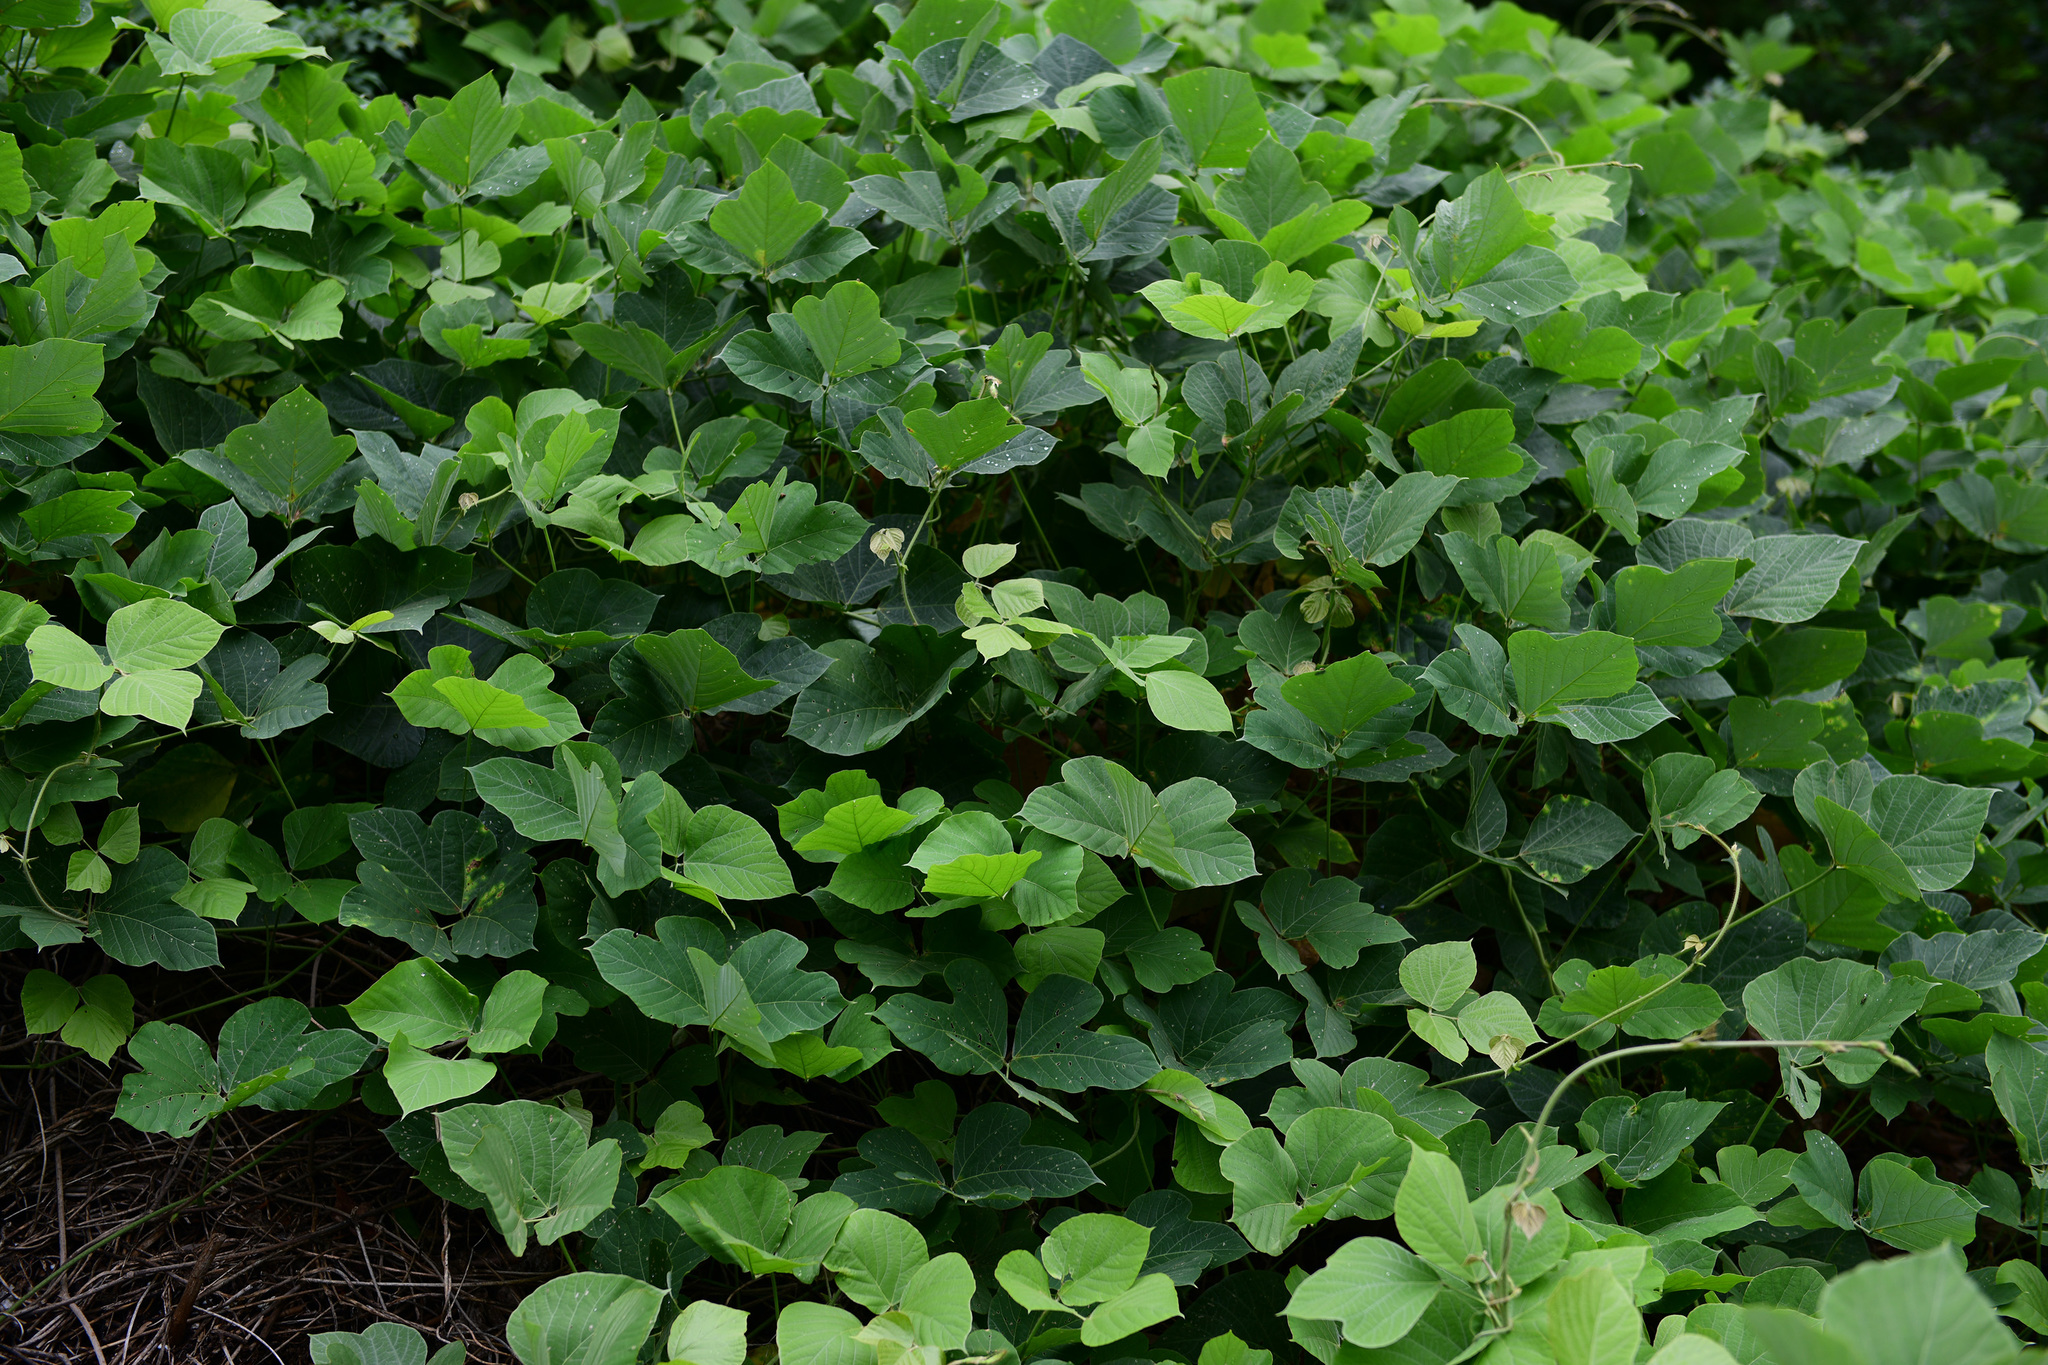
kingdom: Plantae
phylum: Tracheophyta
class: Magnoliopsida
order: Fabales
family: Fabaceae
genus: Pueraria
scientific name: Pueraria montana
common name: Kudzu
